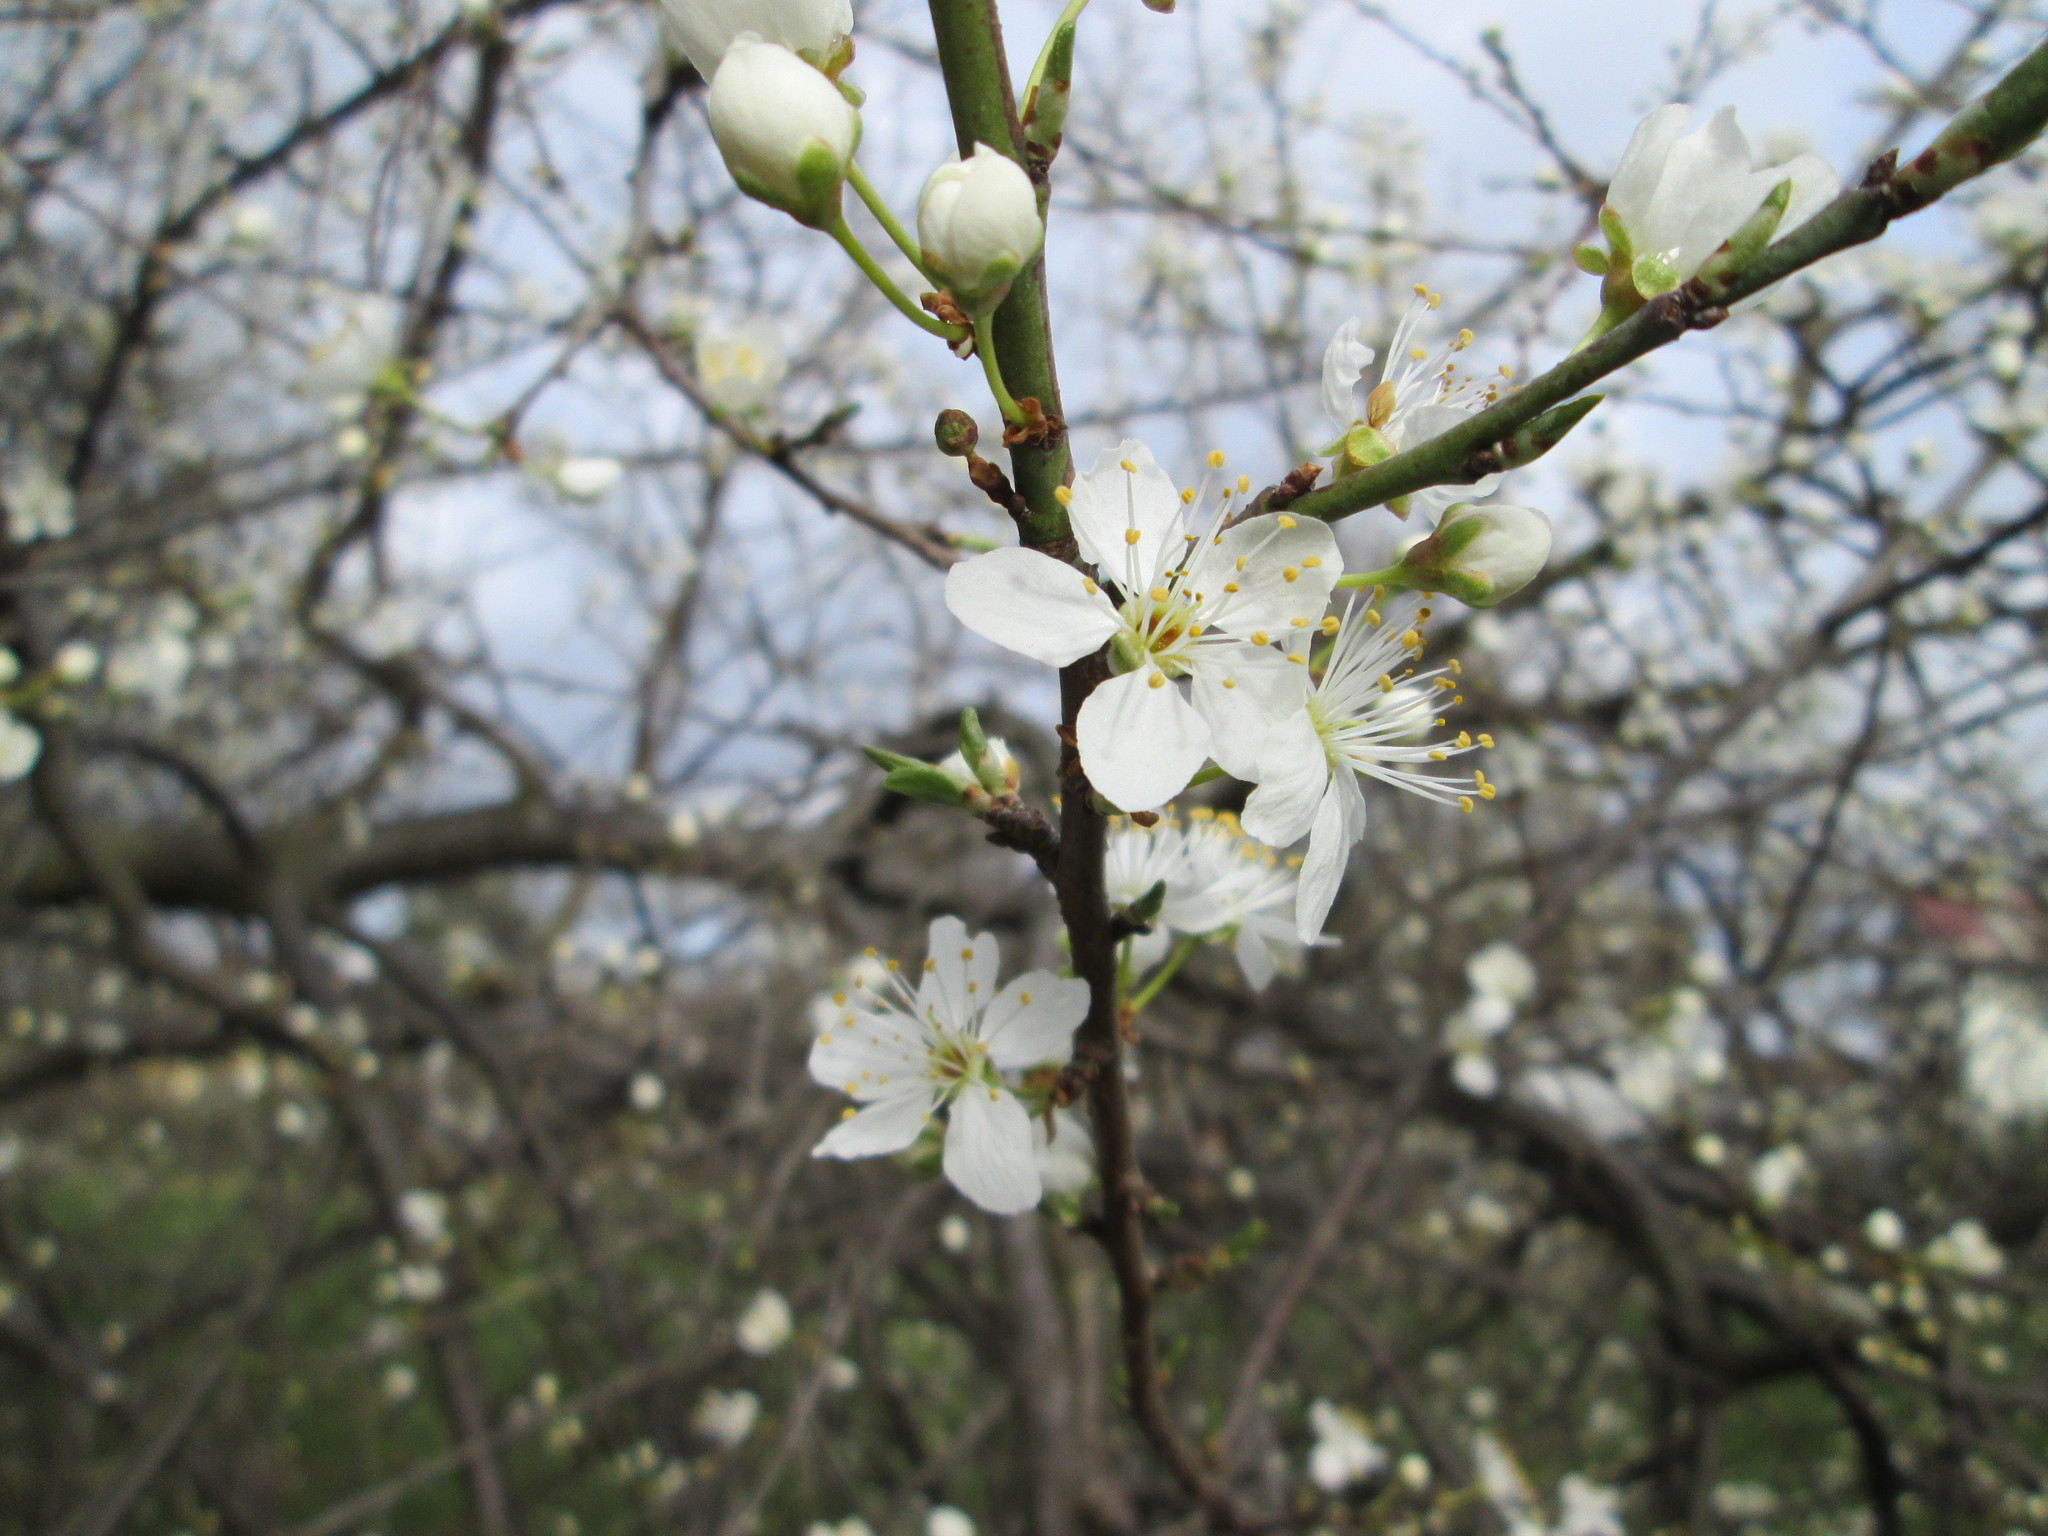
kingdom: Plantae
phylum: Tracheophyta
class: Magnoliopsida
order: Rosales
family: Rosaceae
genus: Prunus
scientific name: Prunus cerasifera
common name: Cherry plum
